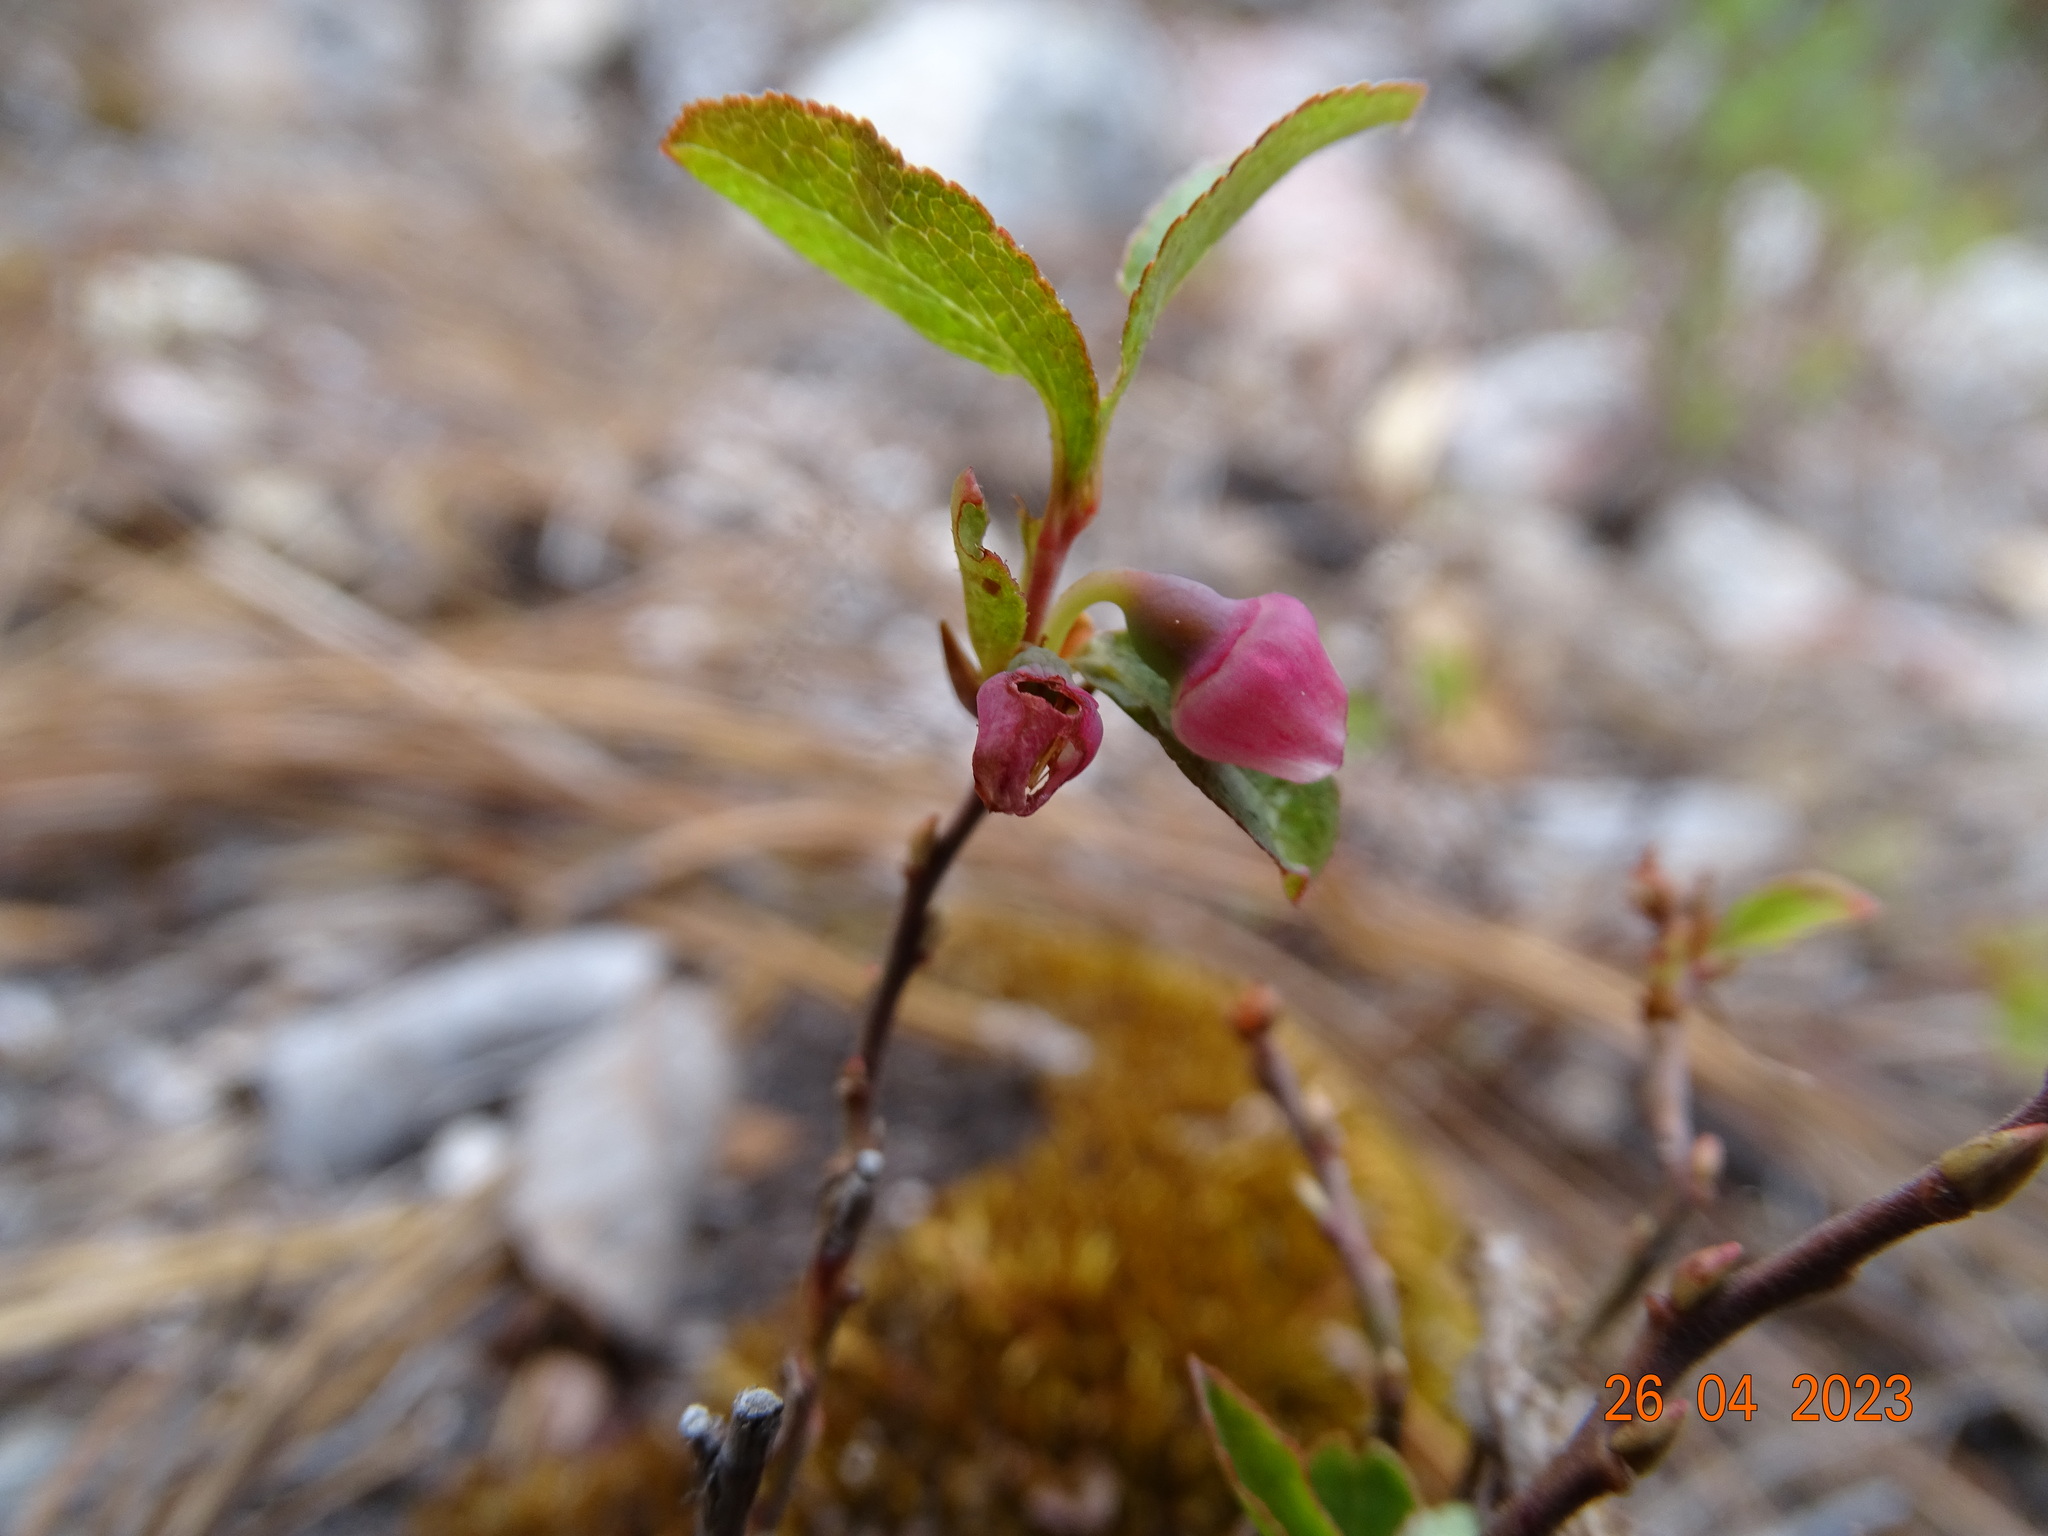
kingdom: Plantae
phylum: Tracheophyta
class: Magnoliopsida
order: Ericales
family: Ericaceae
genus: Vaccinium
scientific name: Vaccinium cespitosum
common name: Dwarf bilberry
